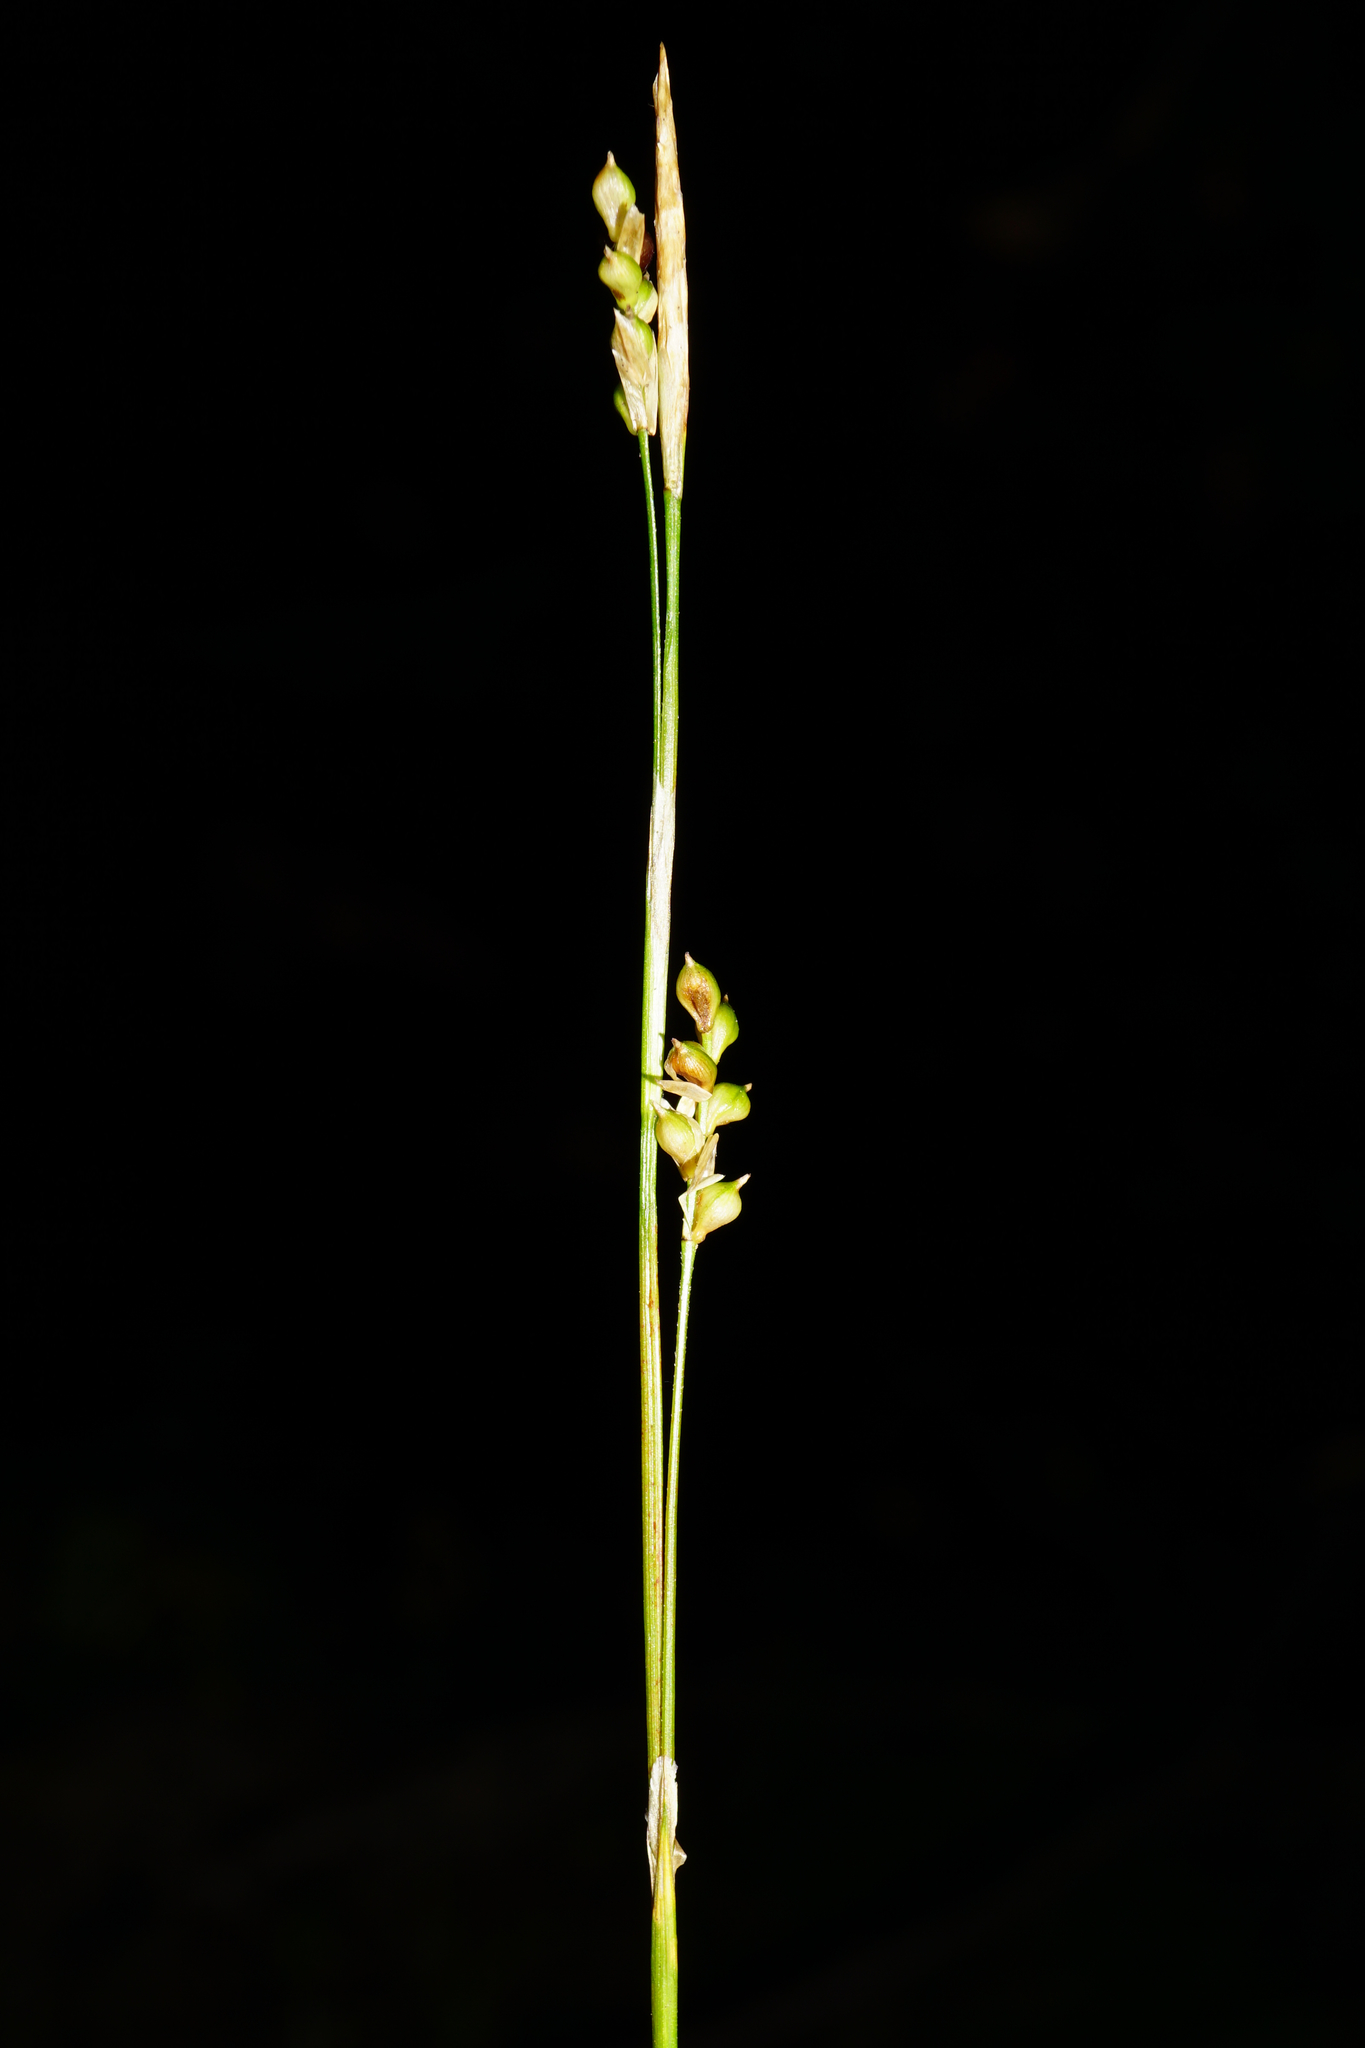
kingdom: Plantae
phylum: Tracheophyta
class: Liliopsida
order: Poales
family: Cyperaceae
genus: Carex
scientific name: Carex alba
